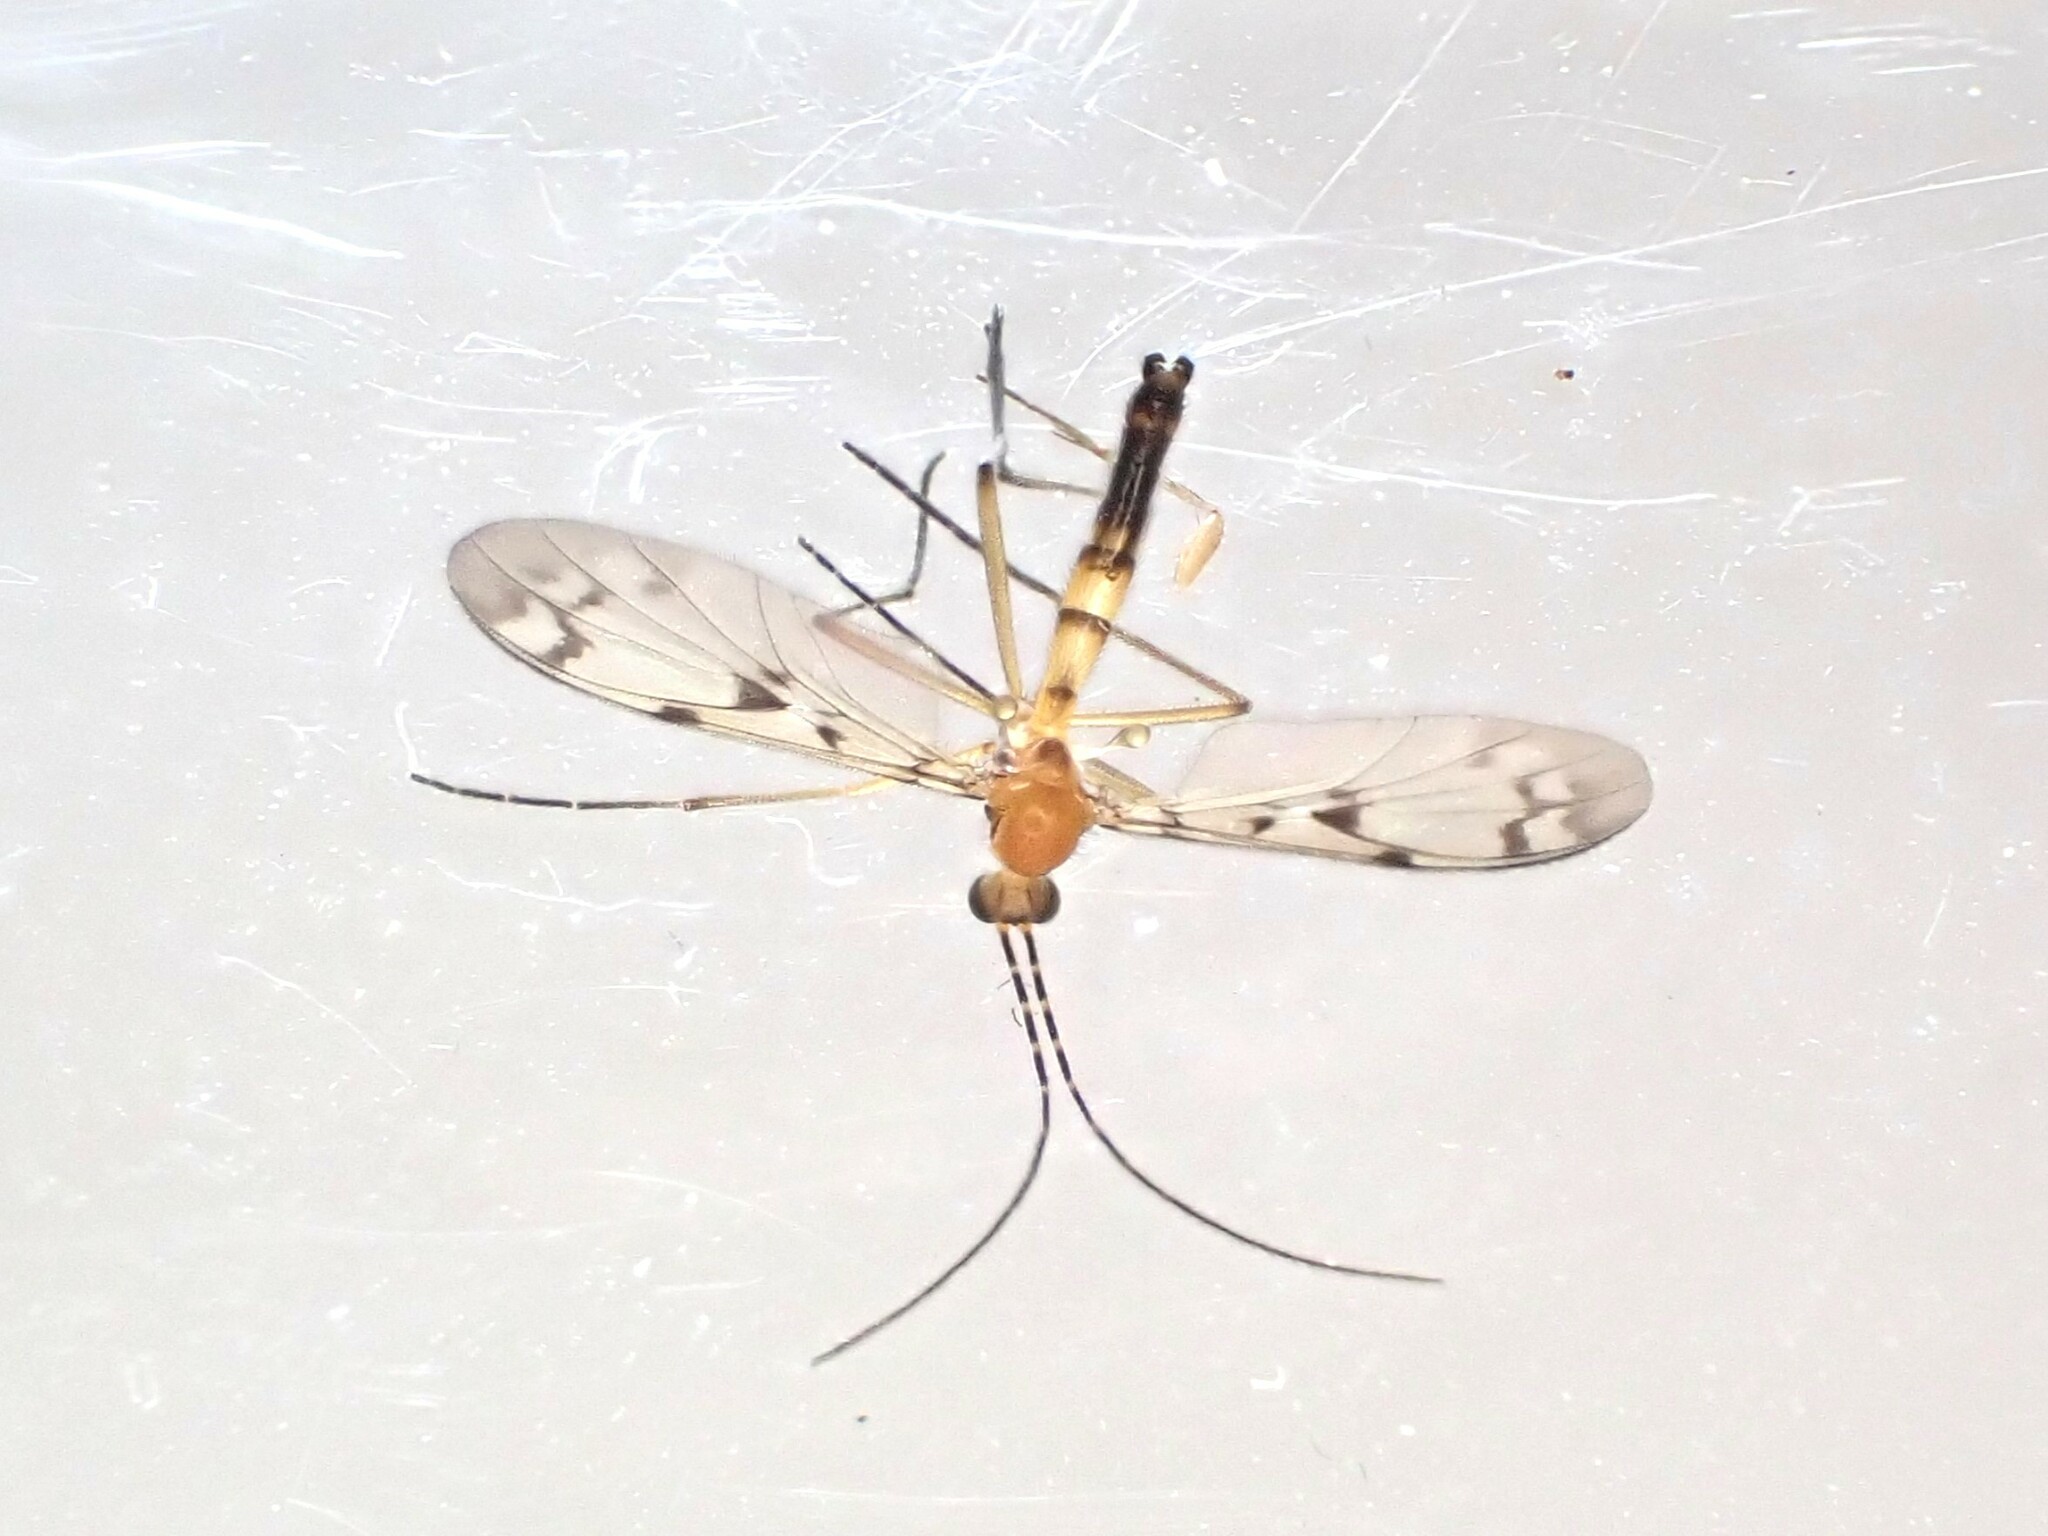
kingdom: Animalia
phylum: Arthropoda
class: Insecta
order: Diptera
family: Keroplatidae
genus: Chiasmoneura
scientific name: Chiasmoneura milligani
